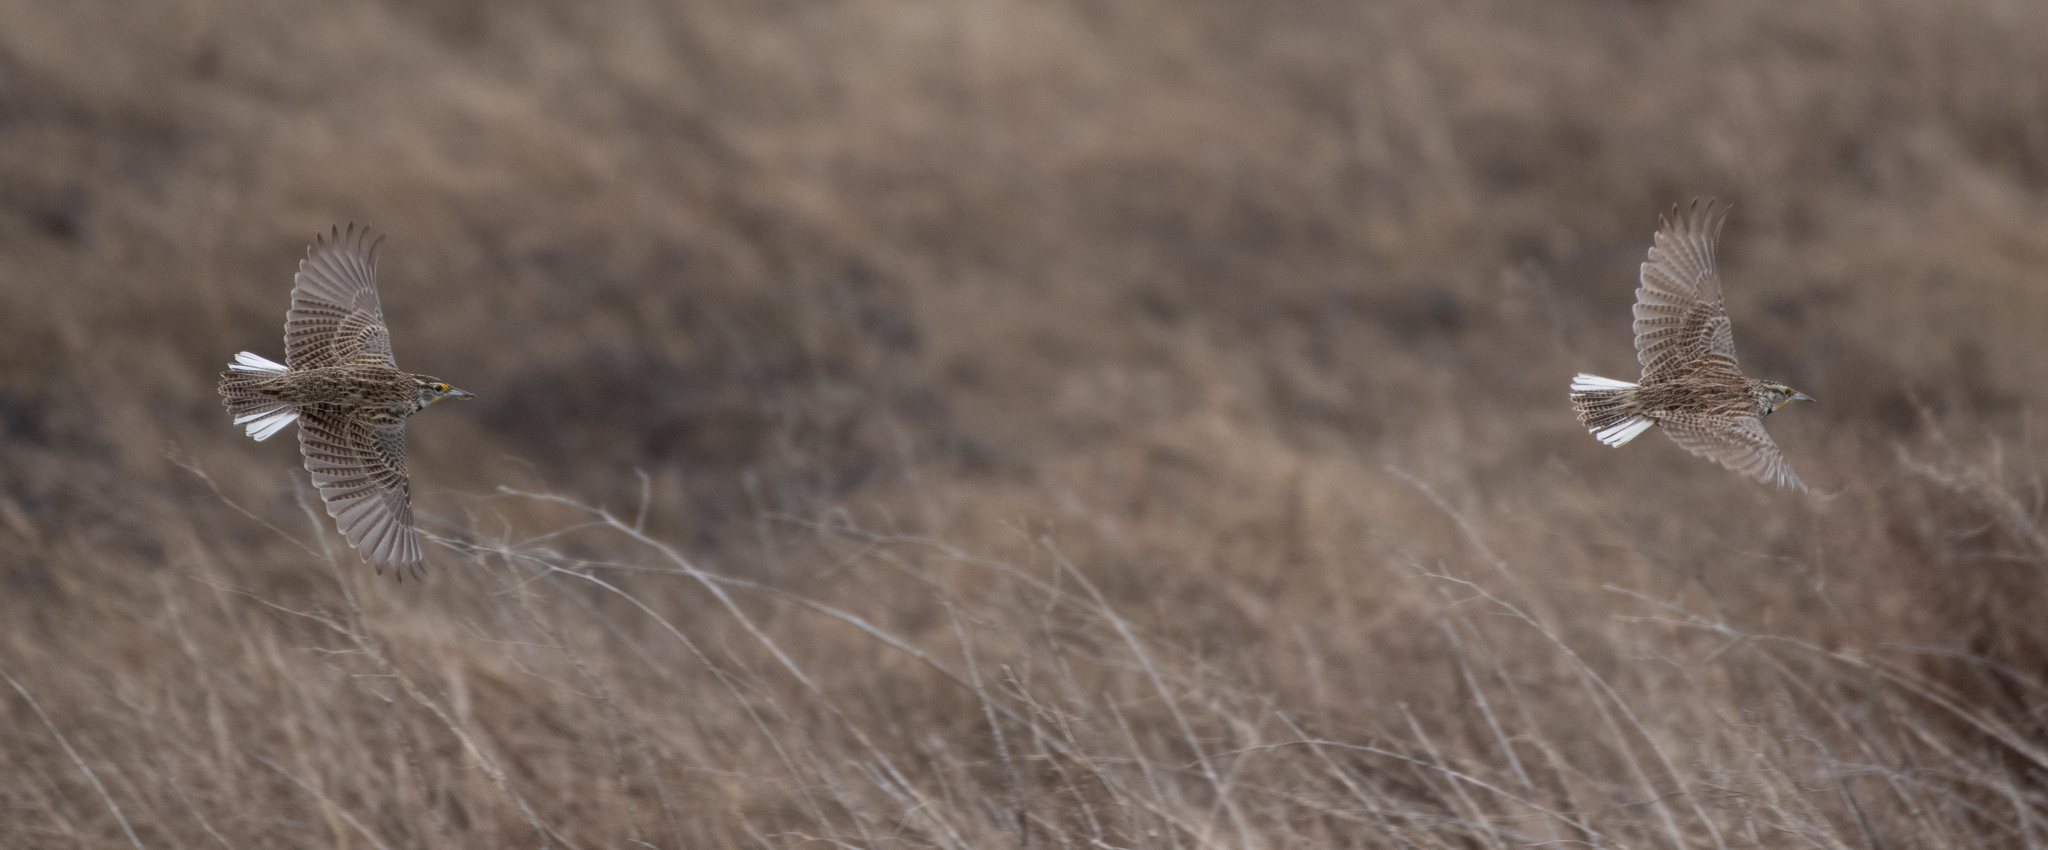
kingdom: Animalia
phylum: Chordata
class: Aves
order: Passeriformes
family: Icteridae
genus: Sturnella
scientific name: Sturnella neglecta
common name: Western meadowlark
